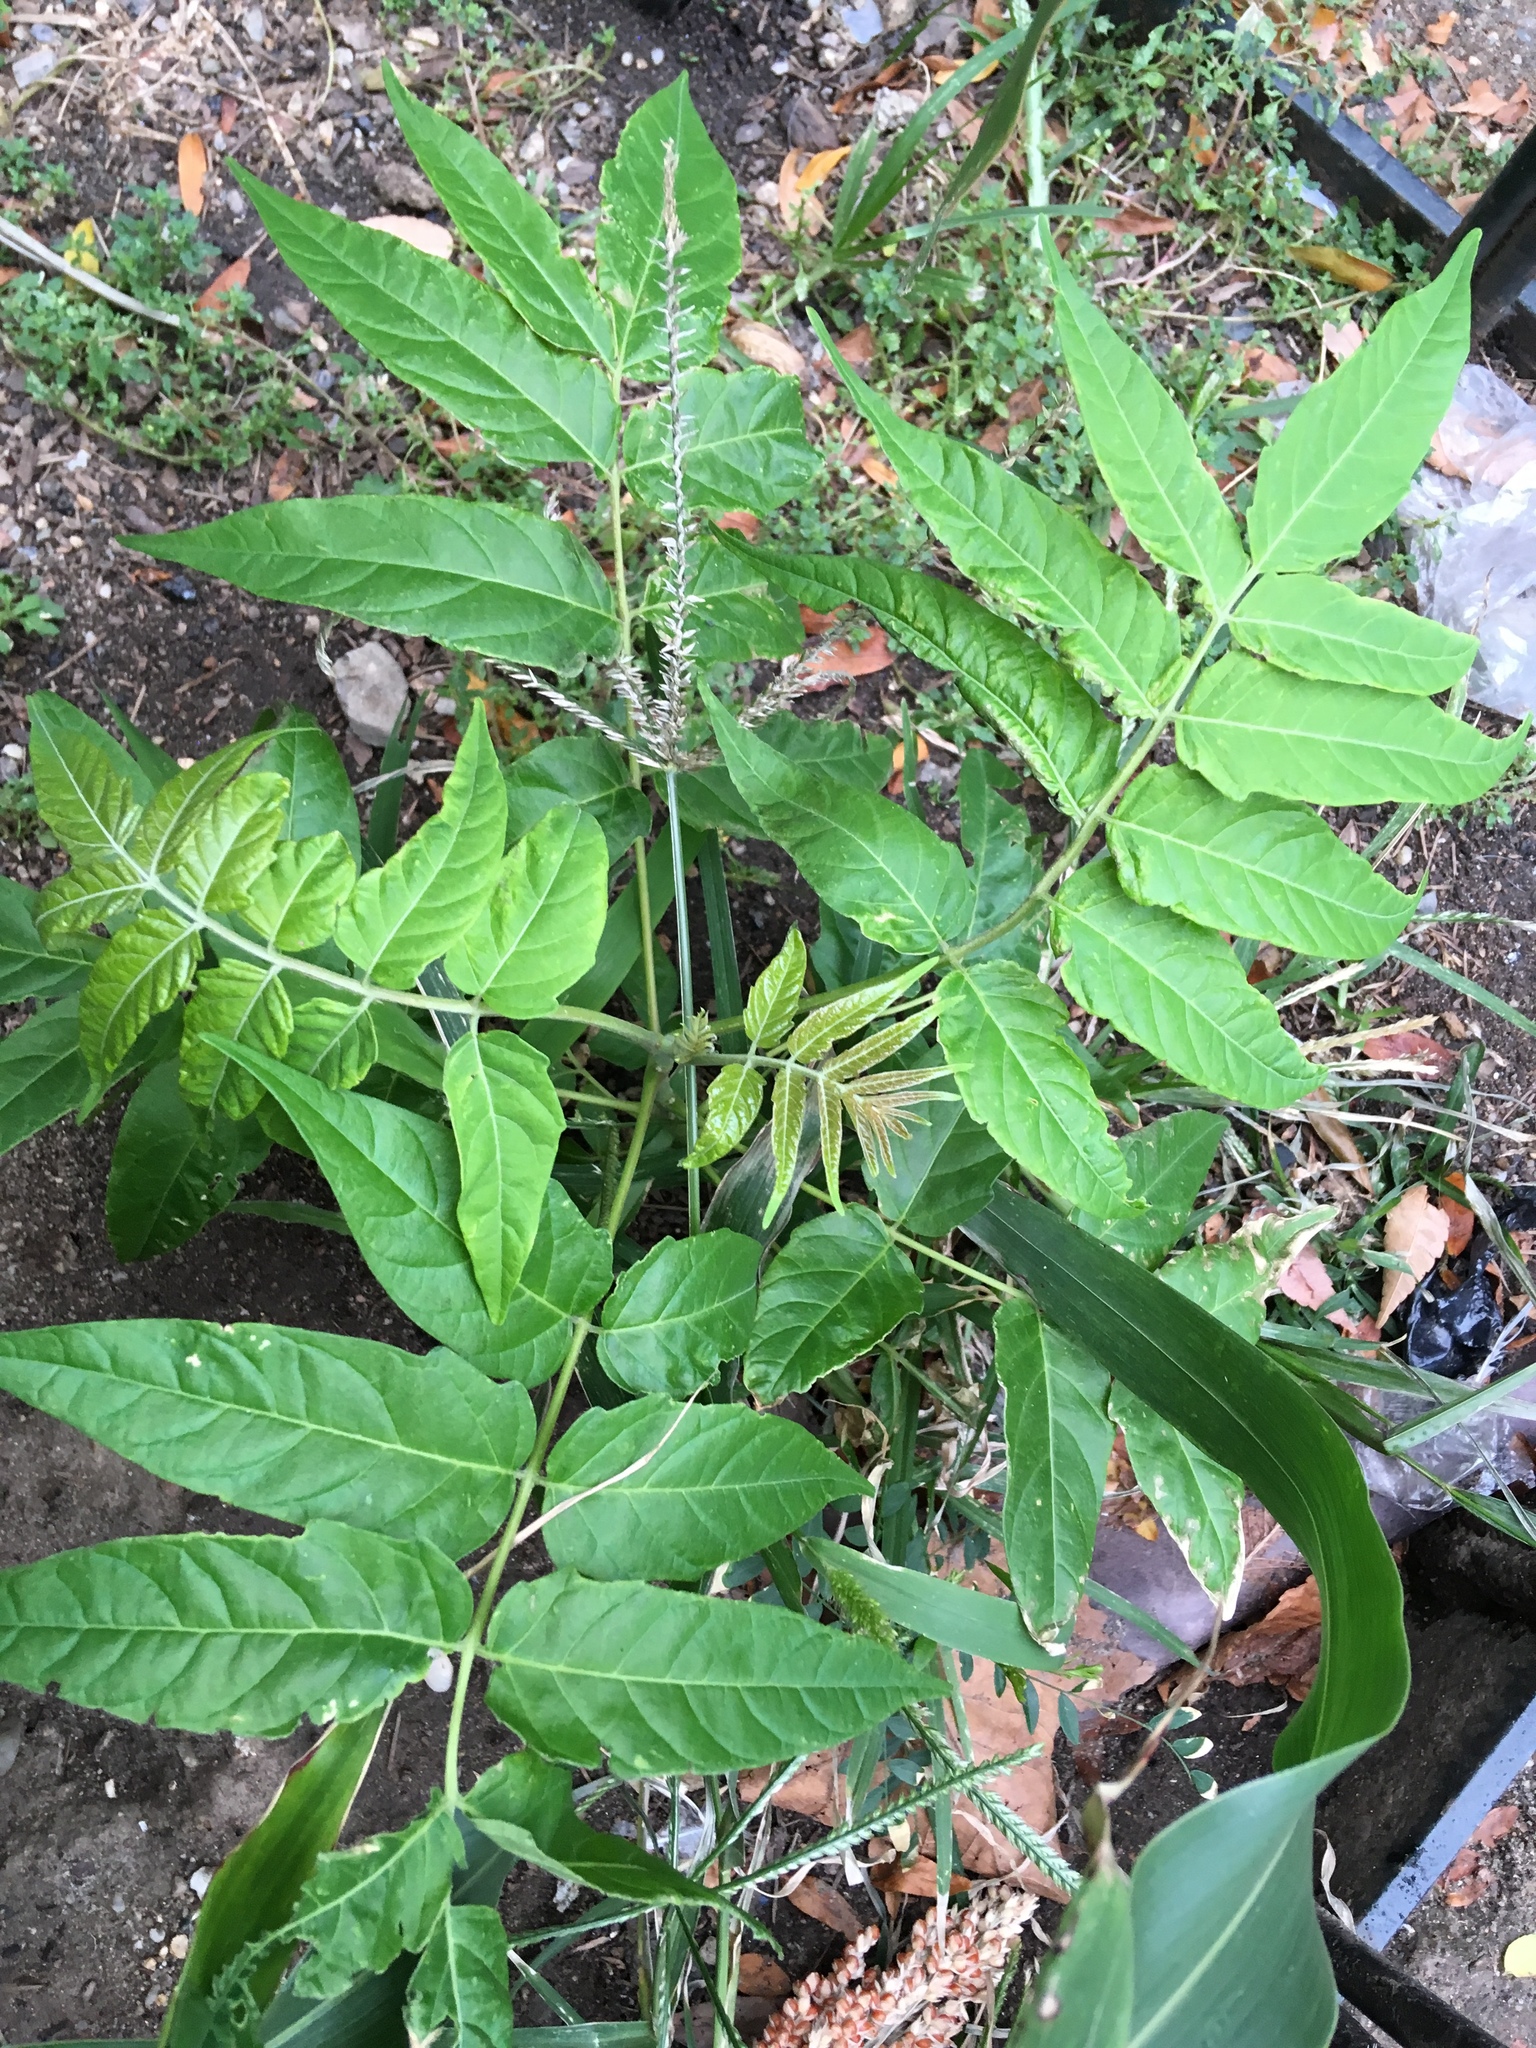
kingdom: Plantae
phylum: Tracheophyta
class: Magnoliopsida
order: Sapindales
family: Simaroubaceae
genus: Ailanthus
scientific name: Ailanthus altissima
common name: Tree-of-heaven
